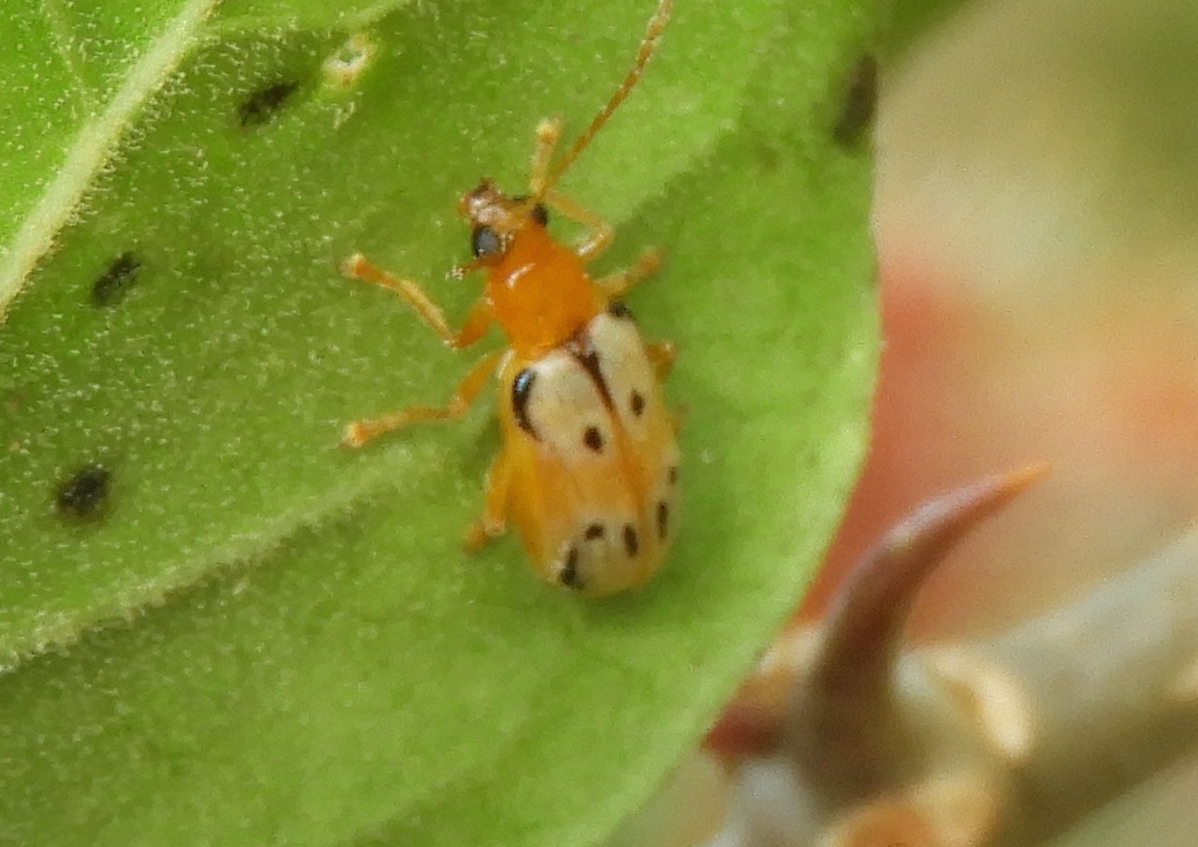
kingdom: Animalia
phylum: Arthropoda
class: Insecta
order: Coleoptera
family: Chrysomelidae
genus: Diabrotica
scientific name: Diabrotica
